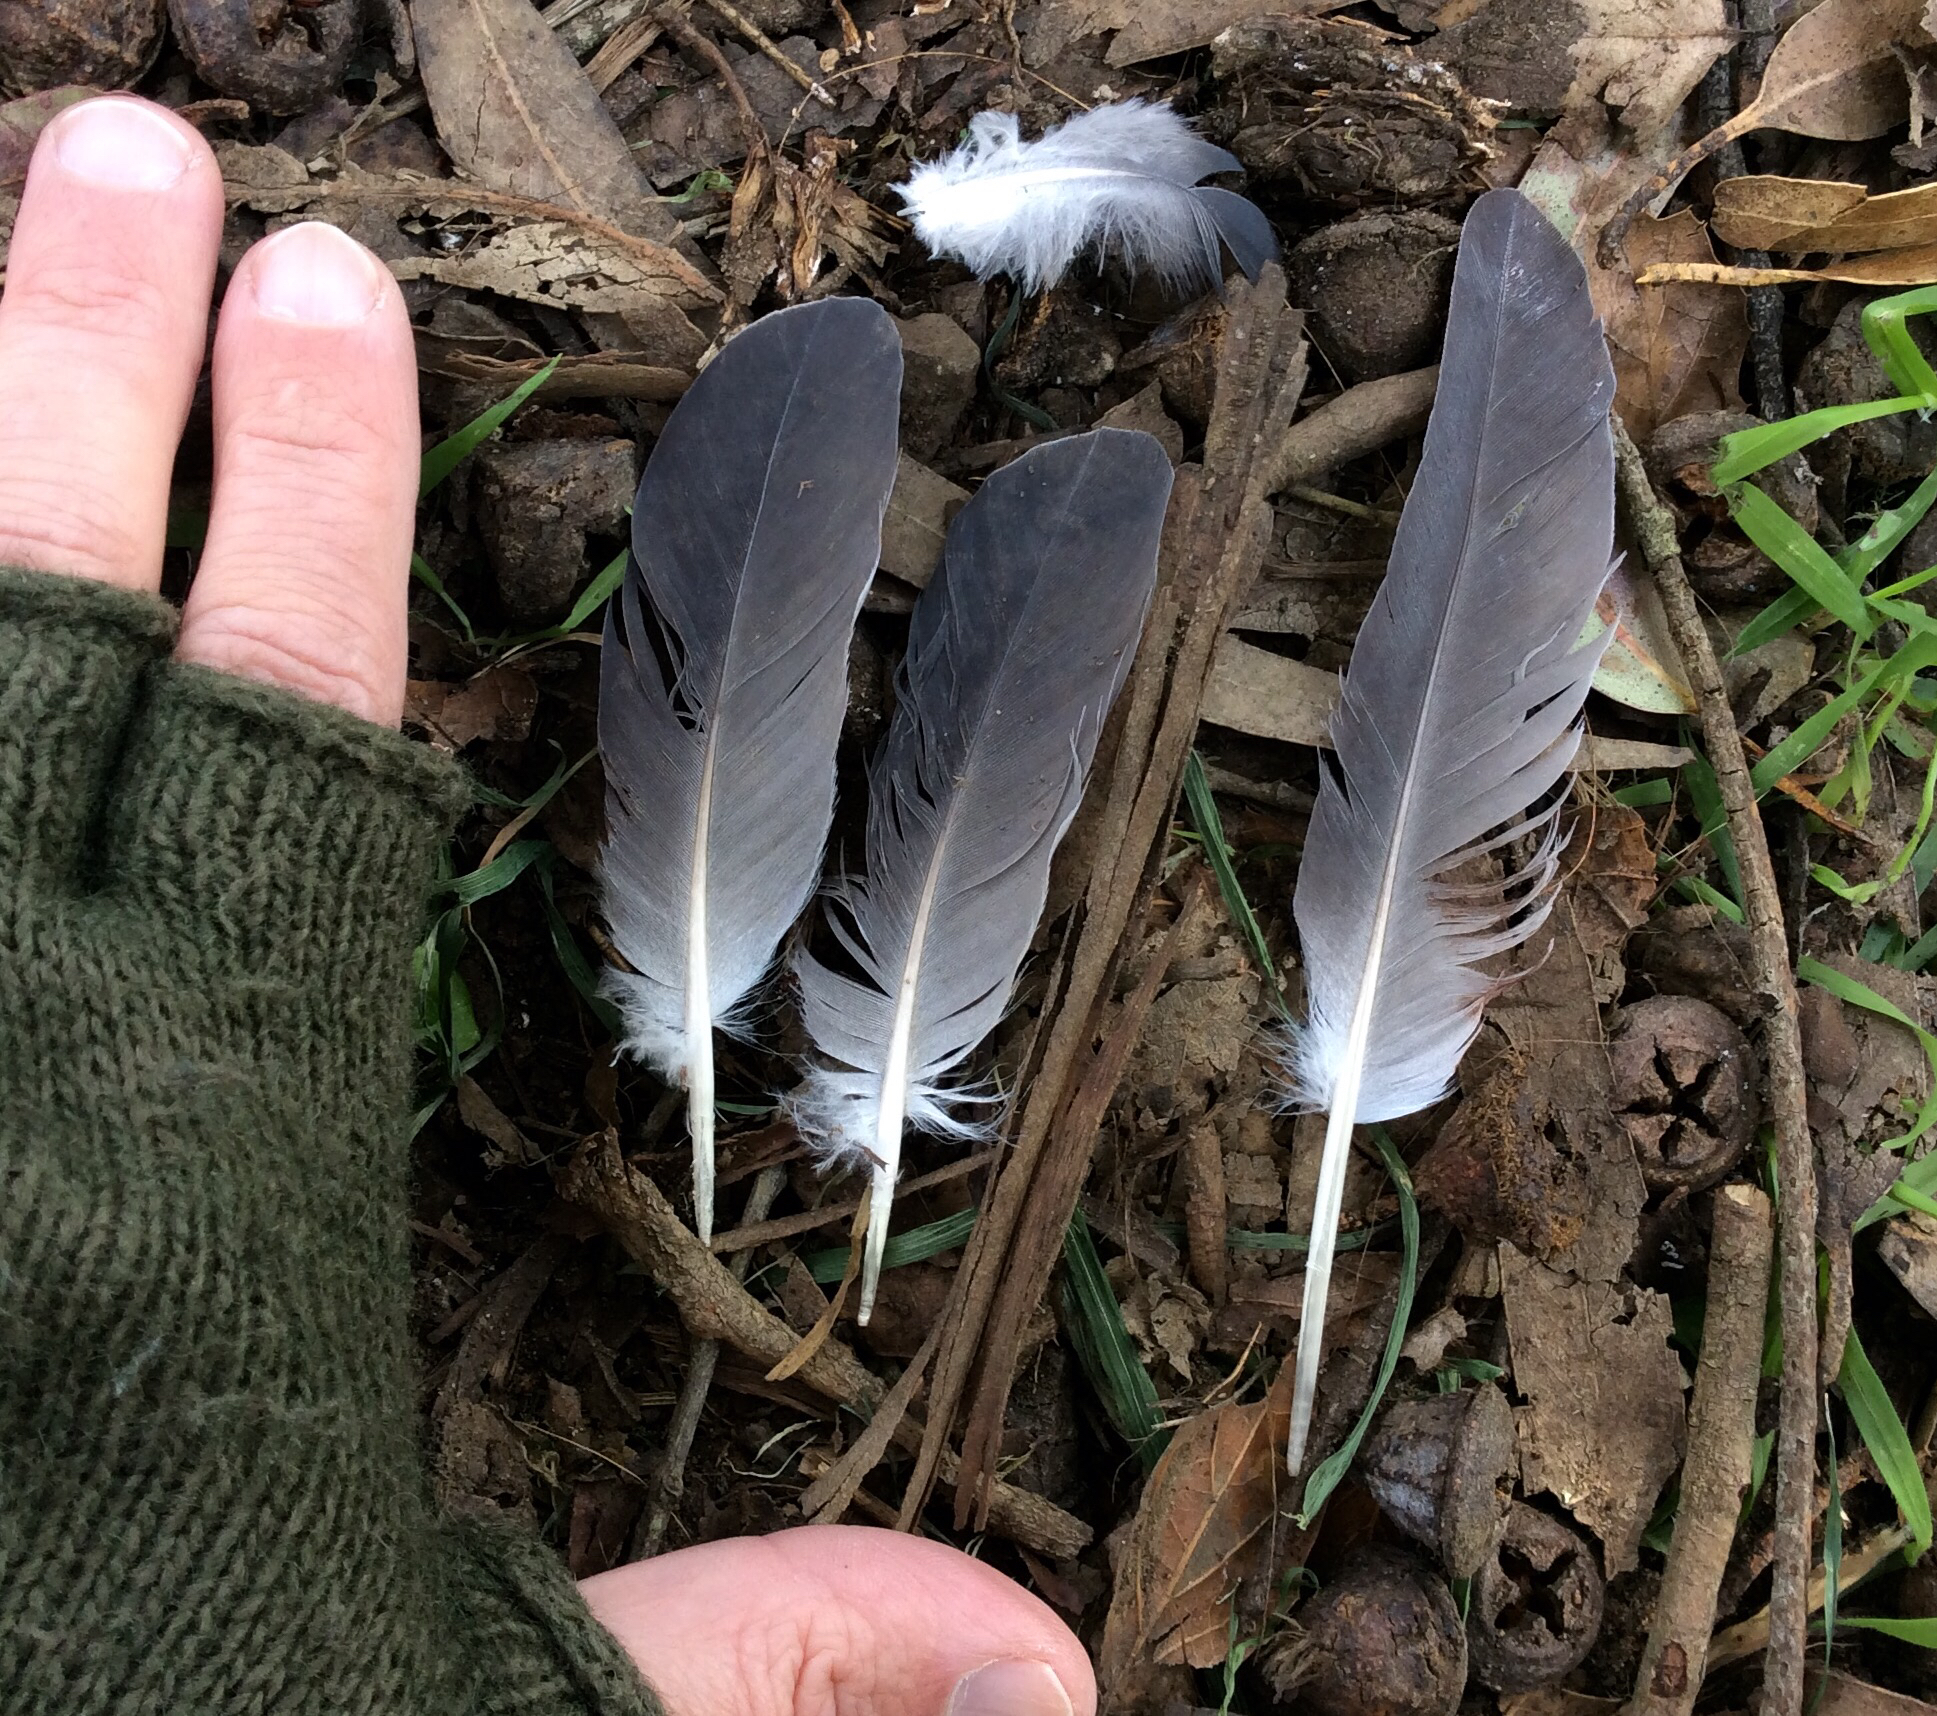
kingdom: Animalia
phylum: Chordata
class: Aves
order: Columbiformes
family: Columbidae
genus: Columba
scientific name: Columba livia
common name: Rock pigeon
